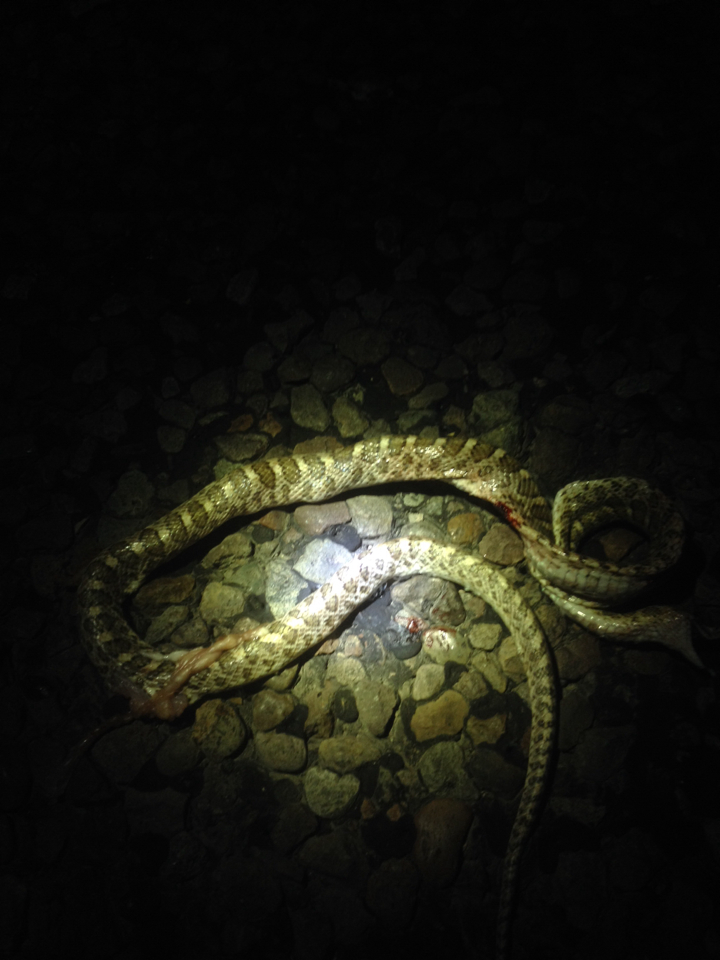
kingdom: Animalia
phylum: Chordata
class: Squamata
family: Colubridae
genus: Arizona
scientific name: Arizona elegans
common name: Glossy snake
